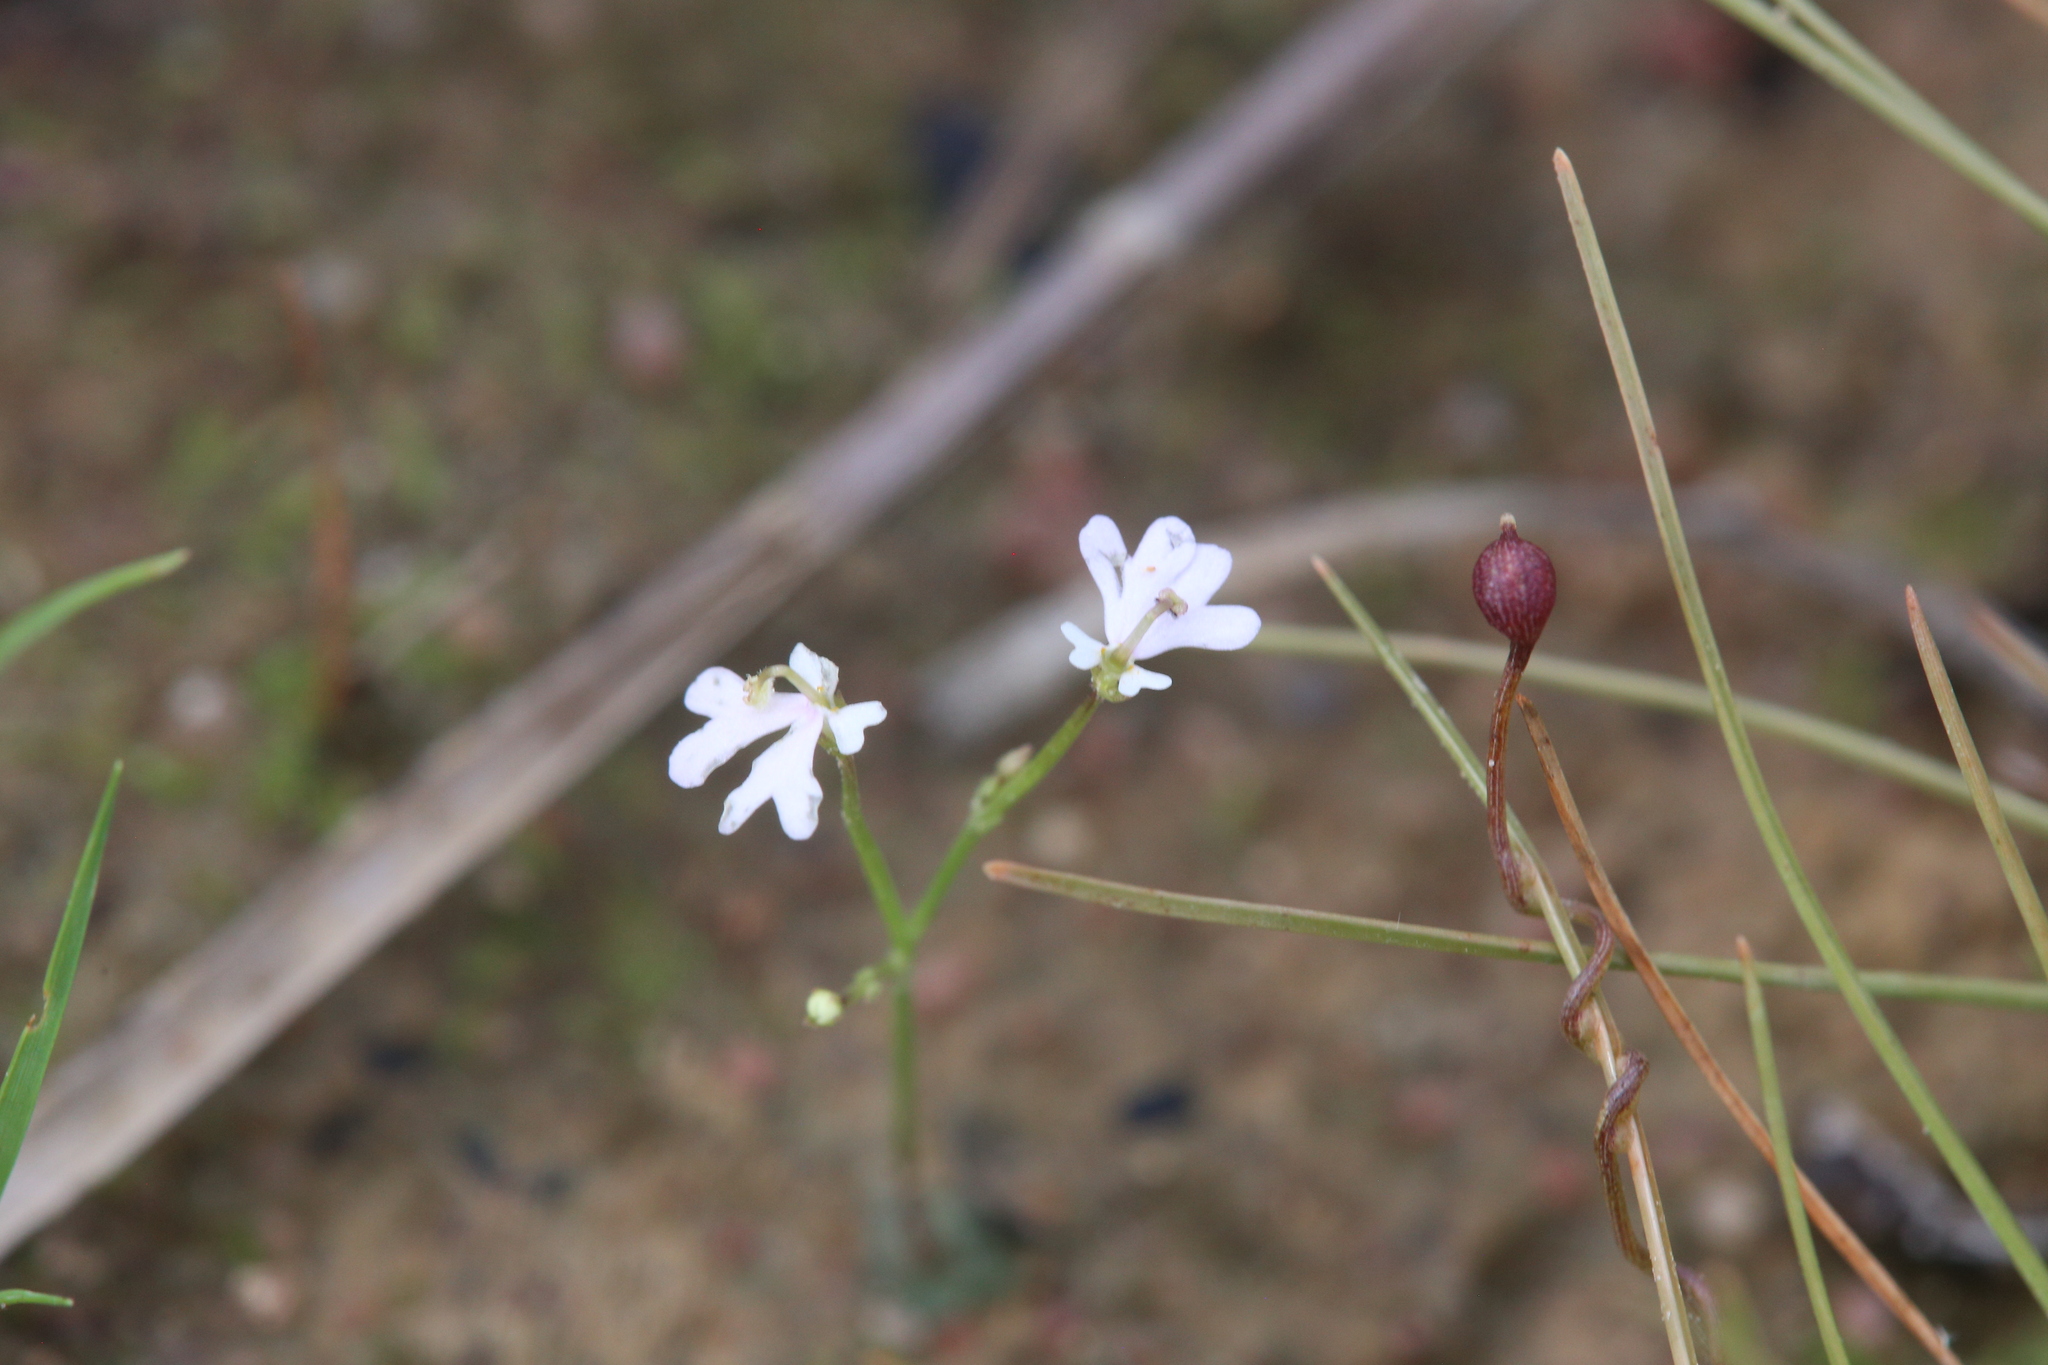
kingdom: Plantae
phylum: Tracheophyta
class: Magnoliopsida
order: Asterales
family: Stylidiaceae
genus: Stylidium
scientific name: Stylidium capillare
